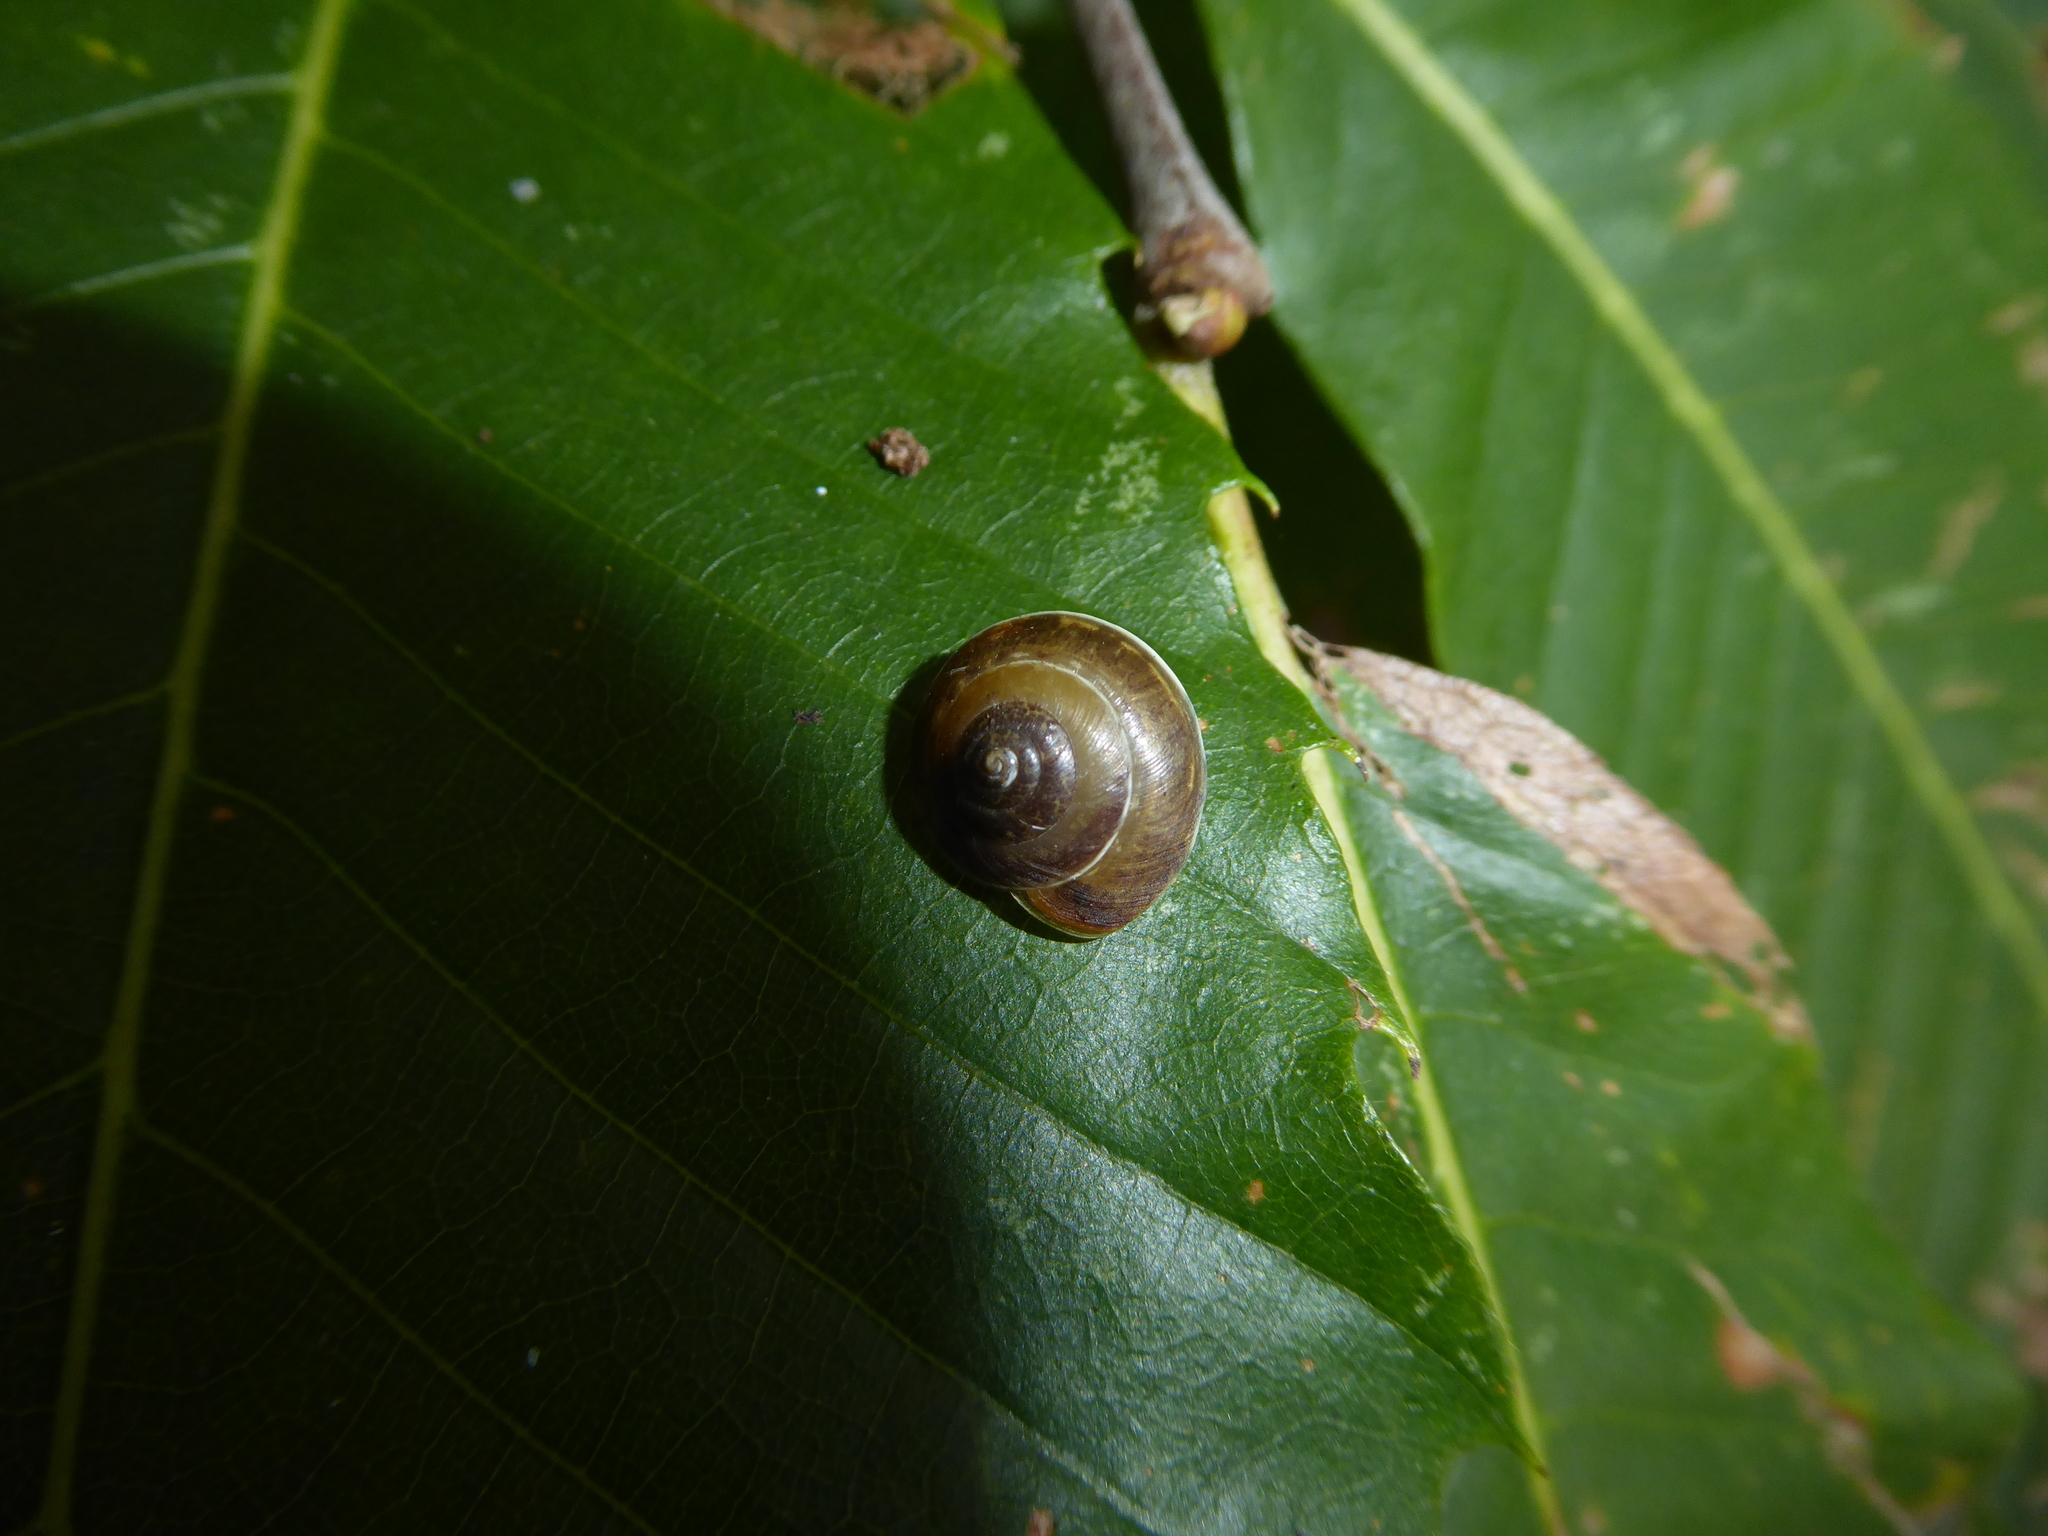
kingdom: Animalia
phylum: Mollusca
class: Gastropoda
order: Stylommatophora
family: Hygromiidae
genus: Hygromia
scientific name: Hygromia cinctella
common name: Girdled snail
